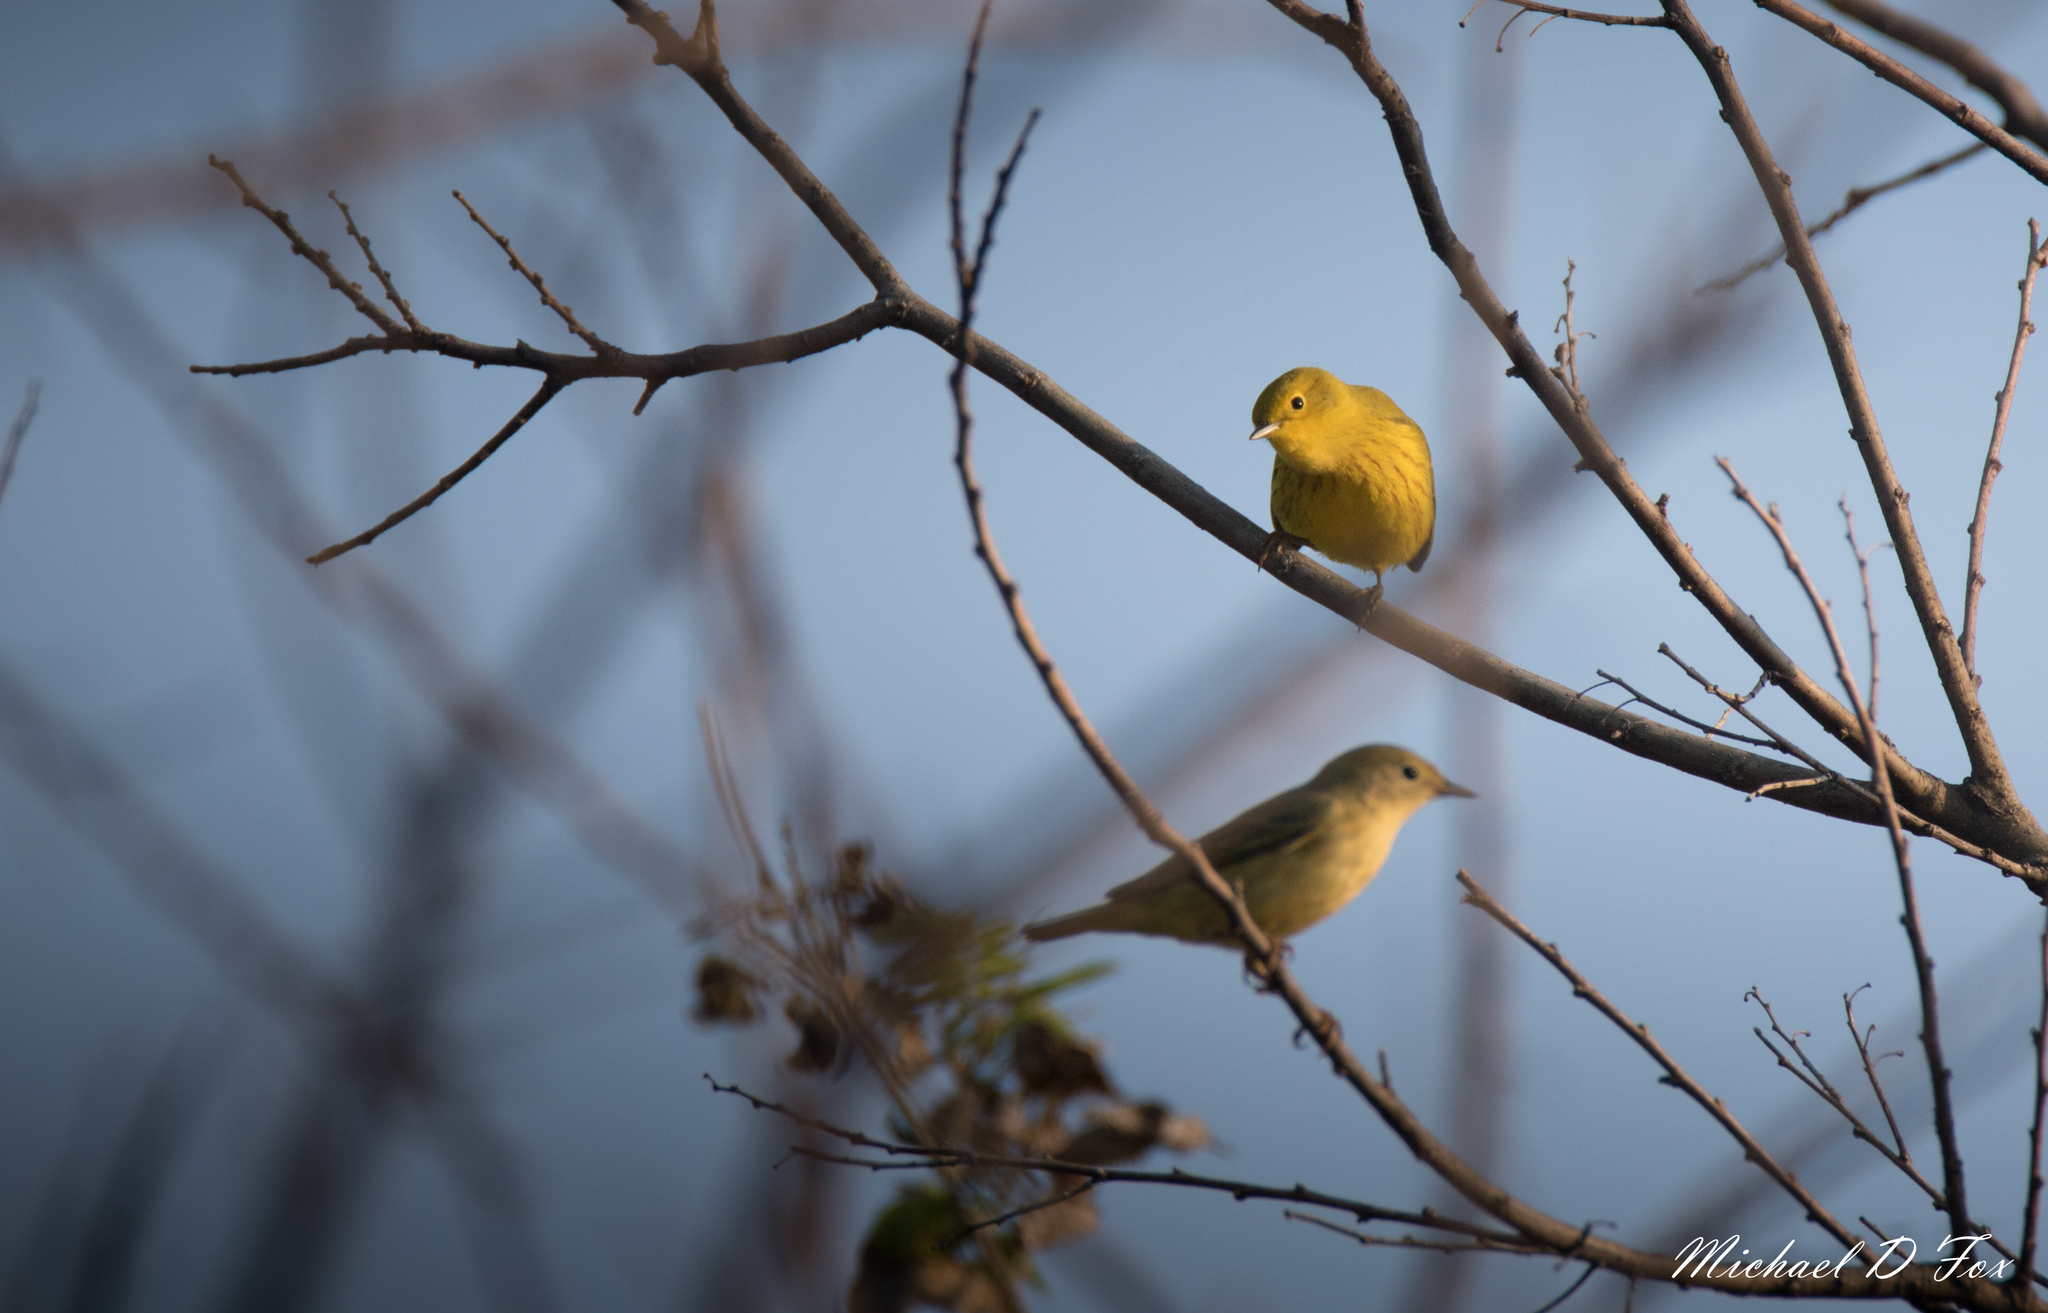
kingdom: Animalia
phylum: Chordata
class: Aves
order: Passeriformes
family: Parulidae
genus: Setophaga
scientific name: Setophaga petechia
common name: Yellow warbler
